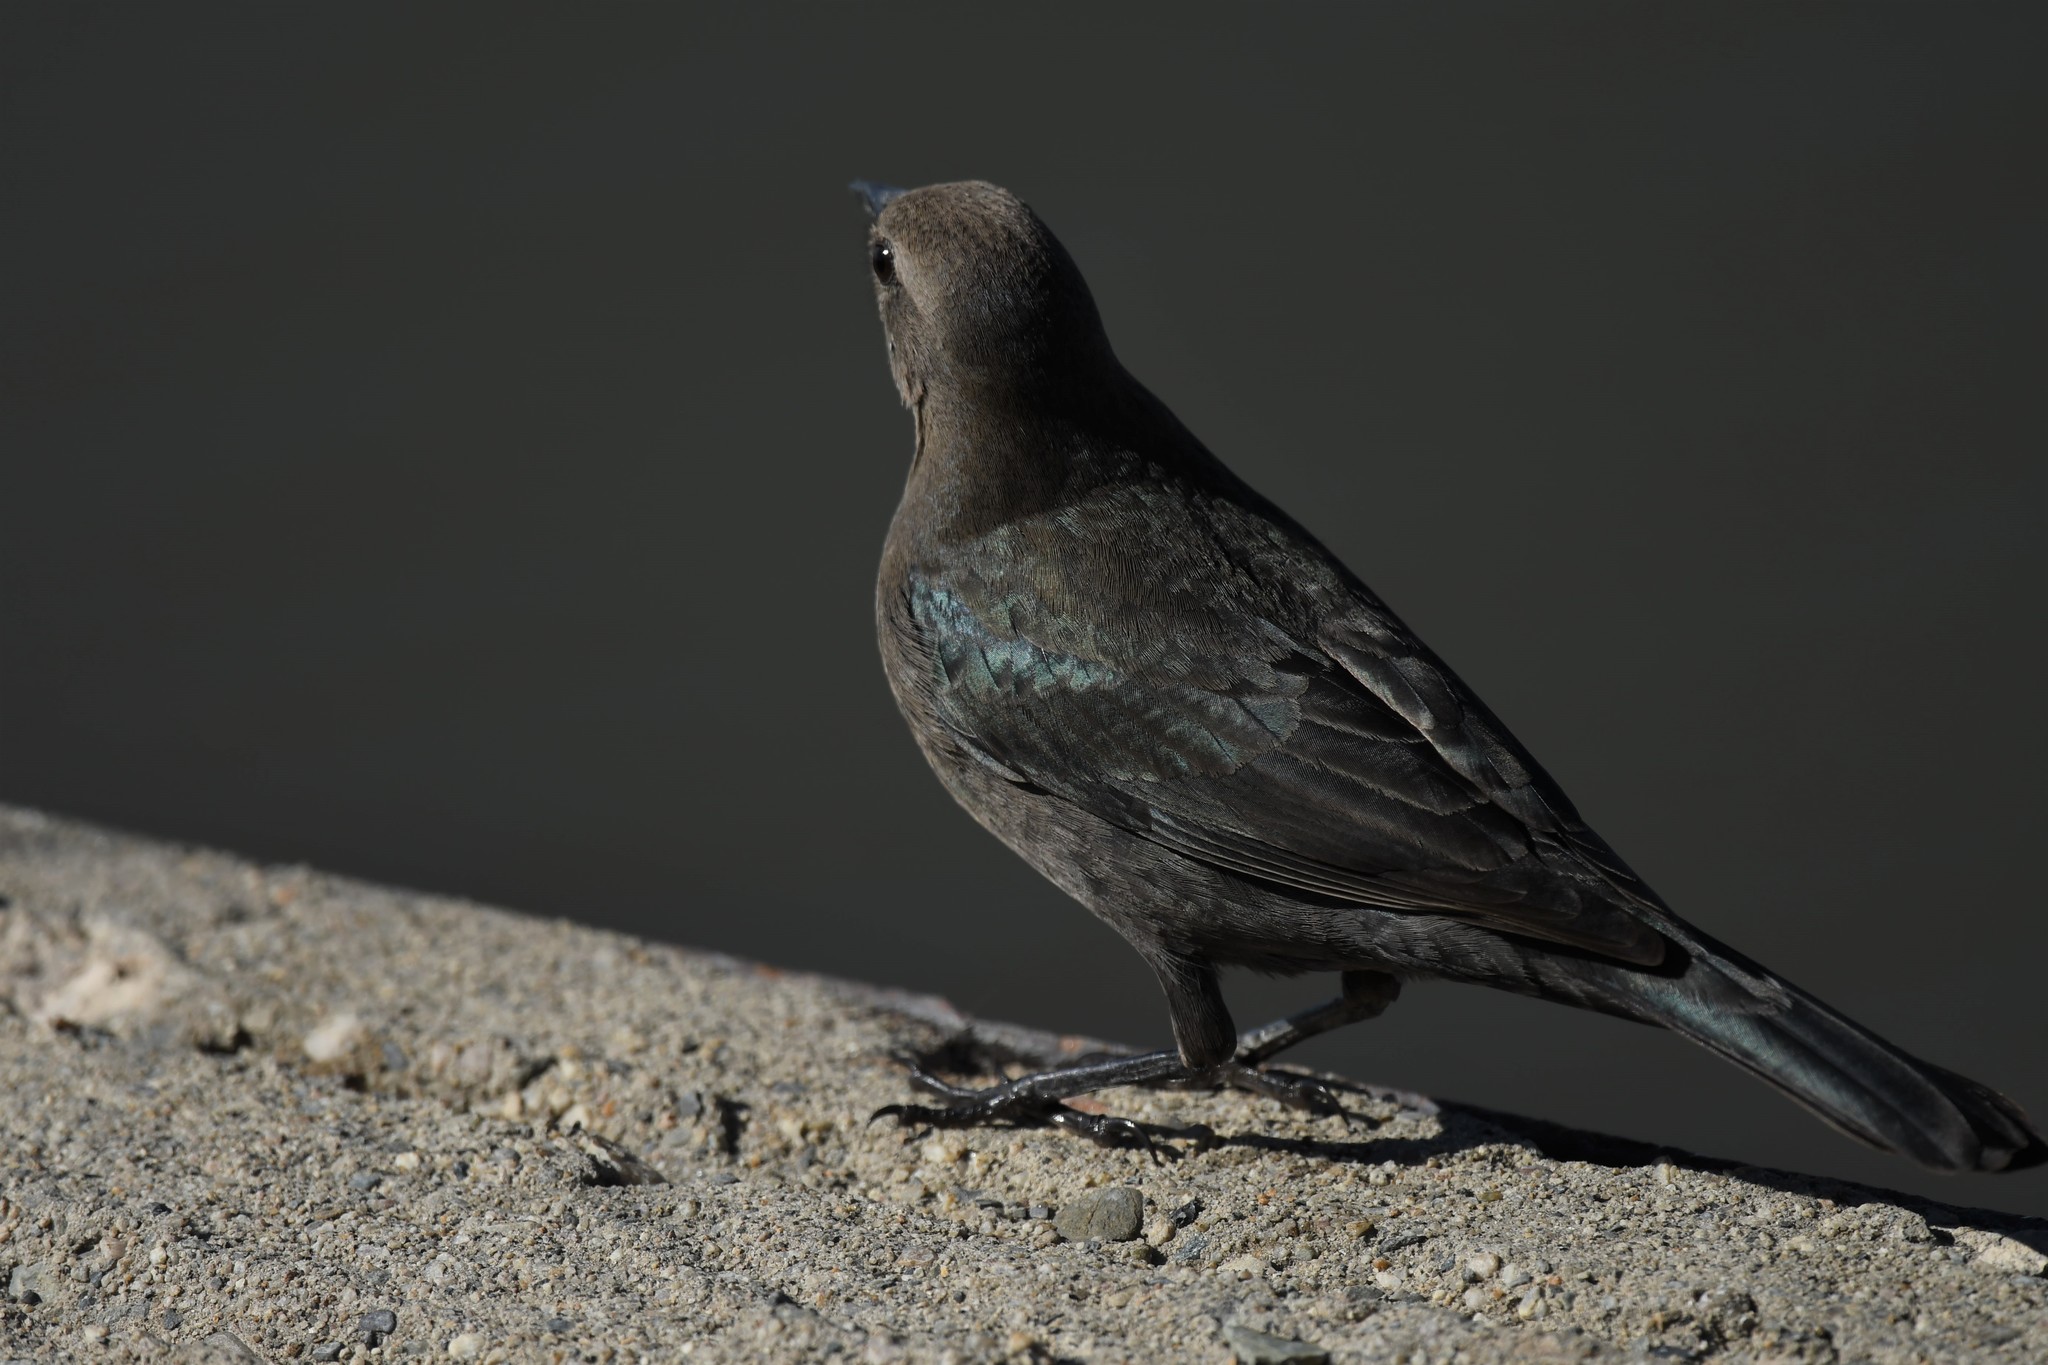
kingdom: Animalia
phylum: Chordata
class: Aves
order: Passeriformes
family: Icteridae
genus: Euphagus
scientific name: Euphagus cyanocephalus
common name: Brewer's blackbird
